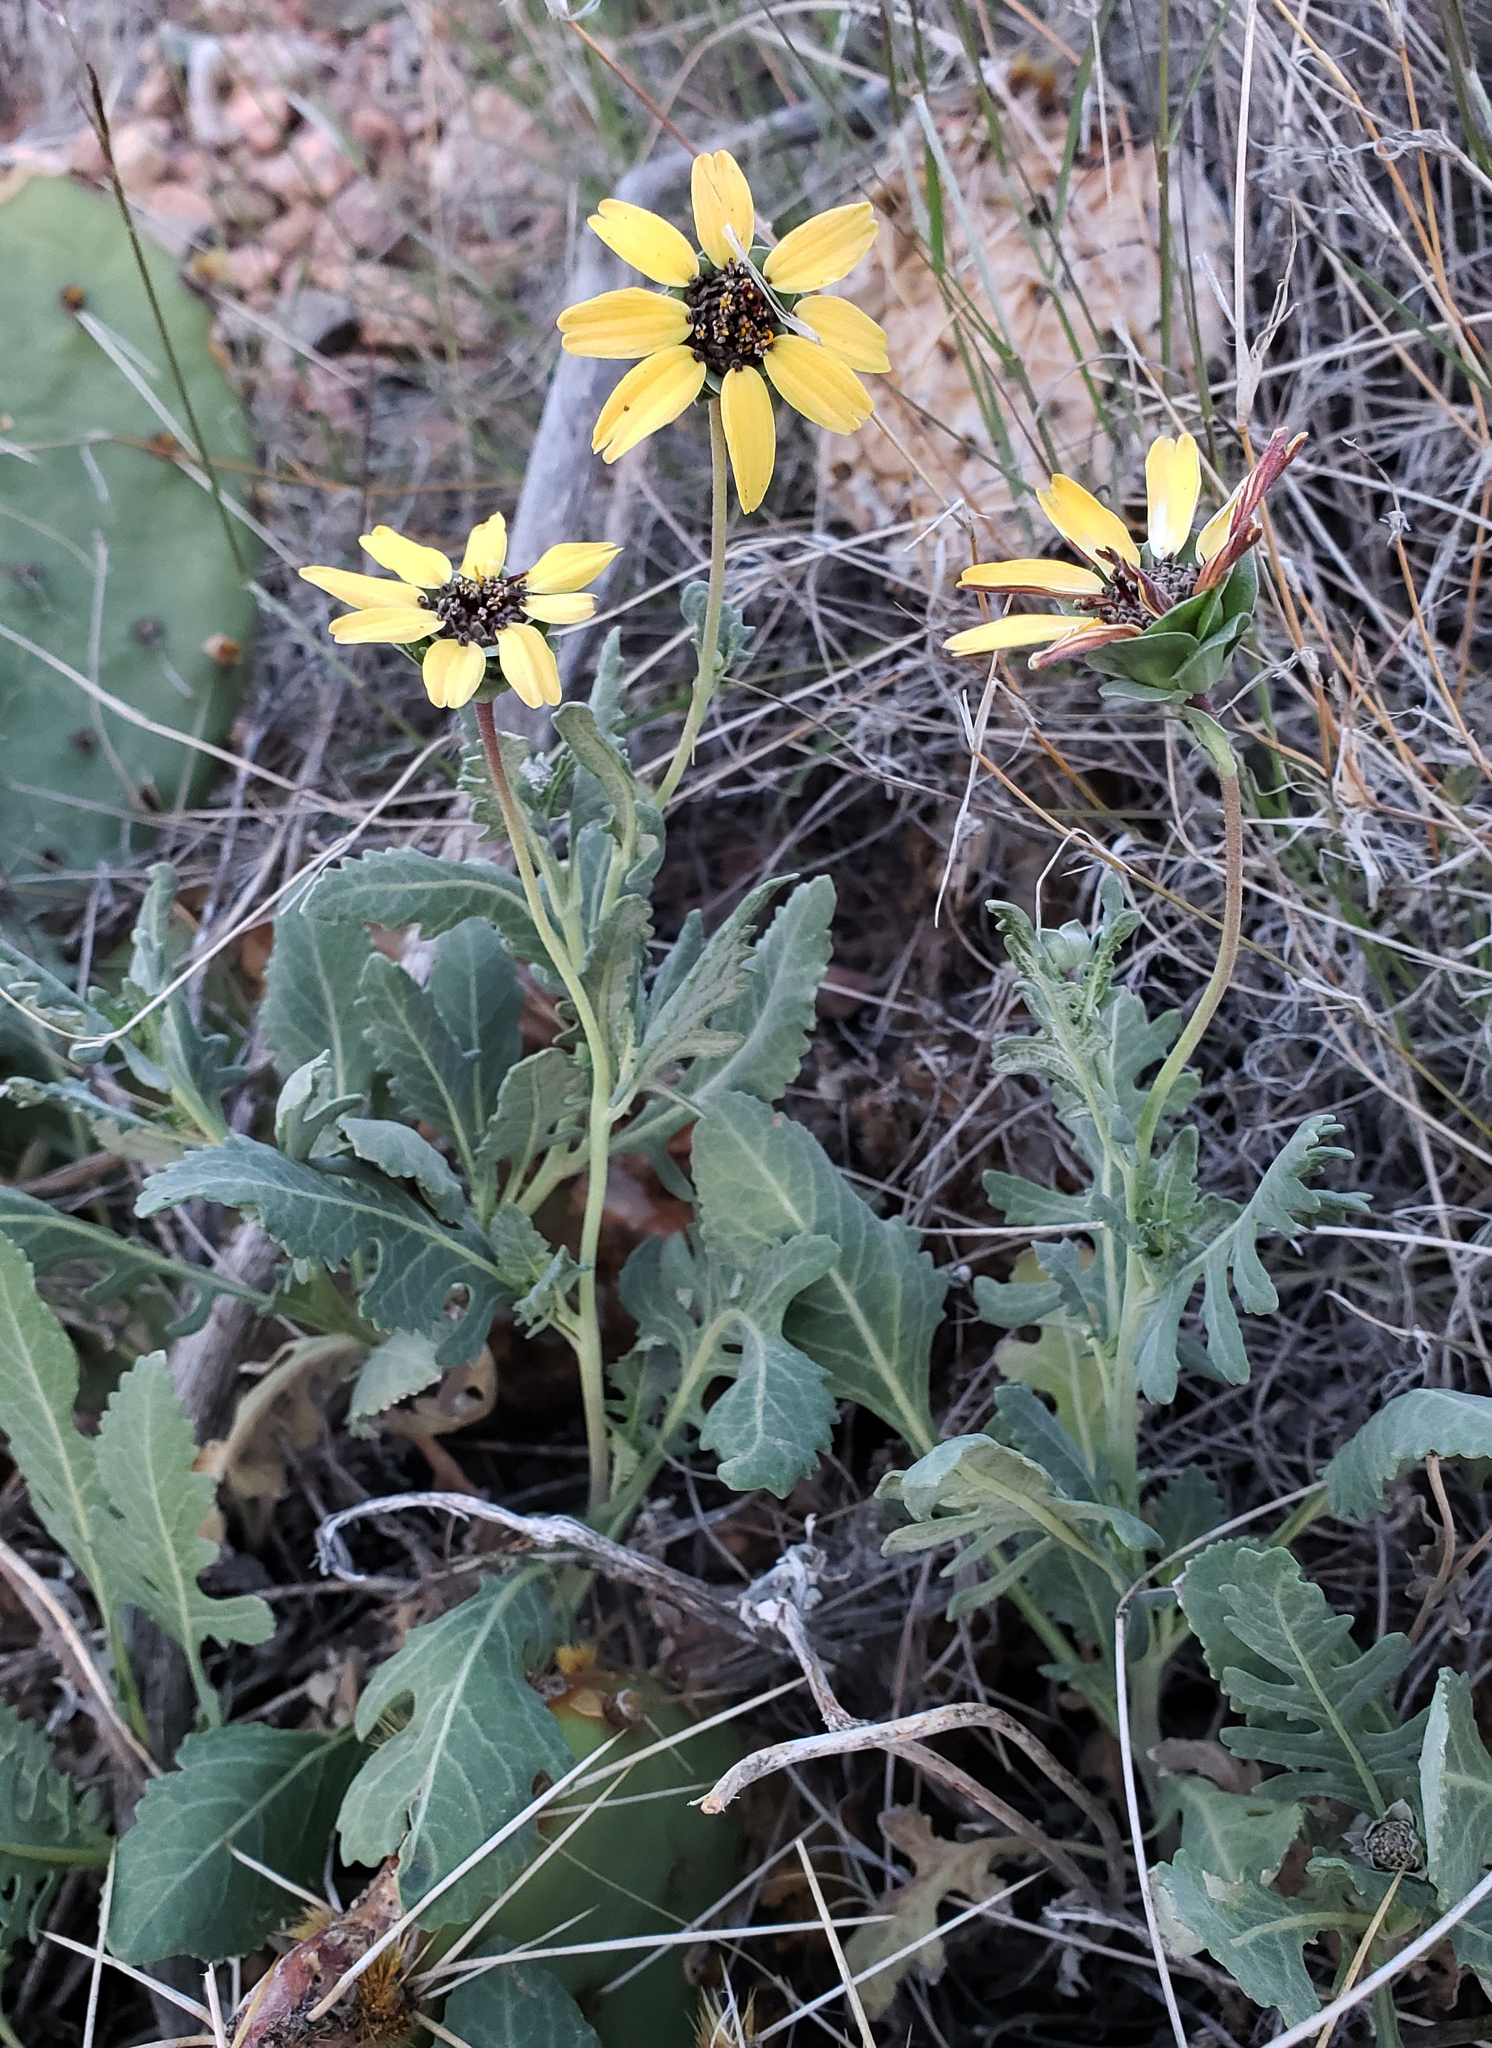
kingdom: Plantae
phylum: Tracheophyta
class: Magnoliopsida
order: Asterales
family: Asteraceae
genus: Berlandiera
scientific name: Berlandiera lyrata
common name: Chocolate-flower
